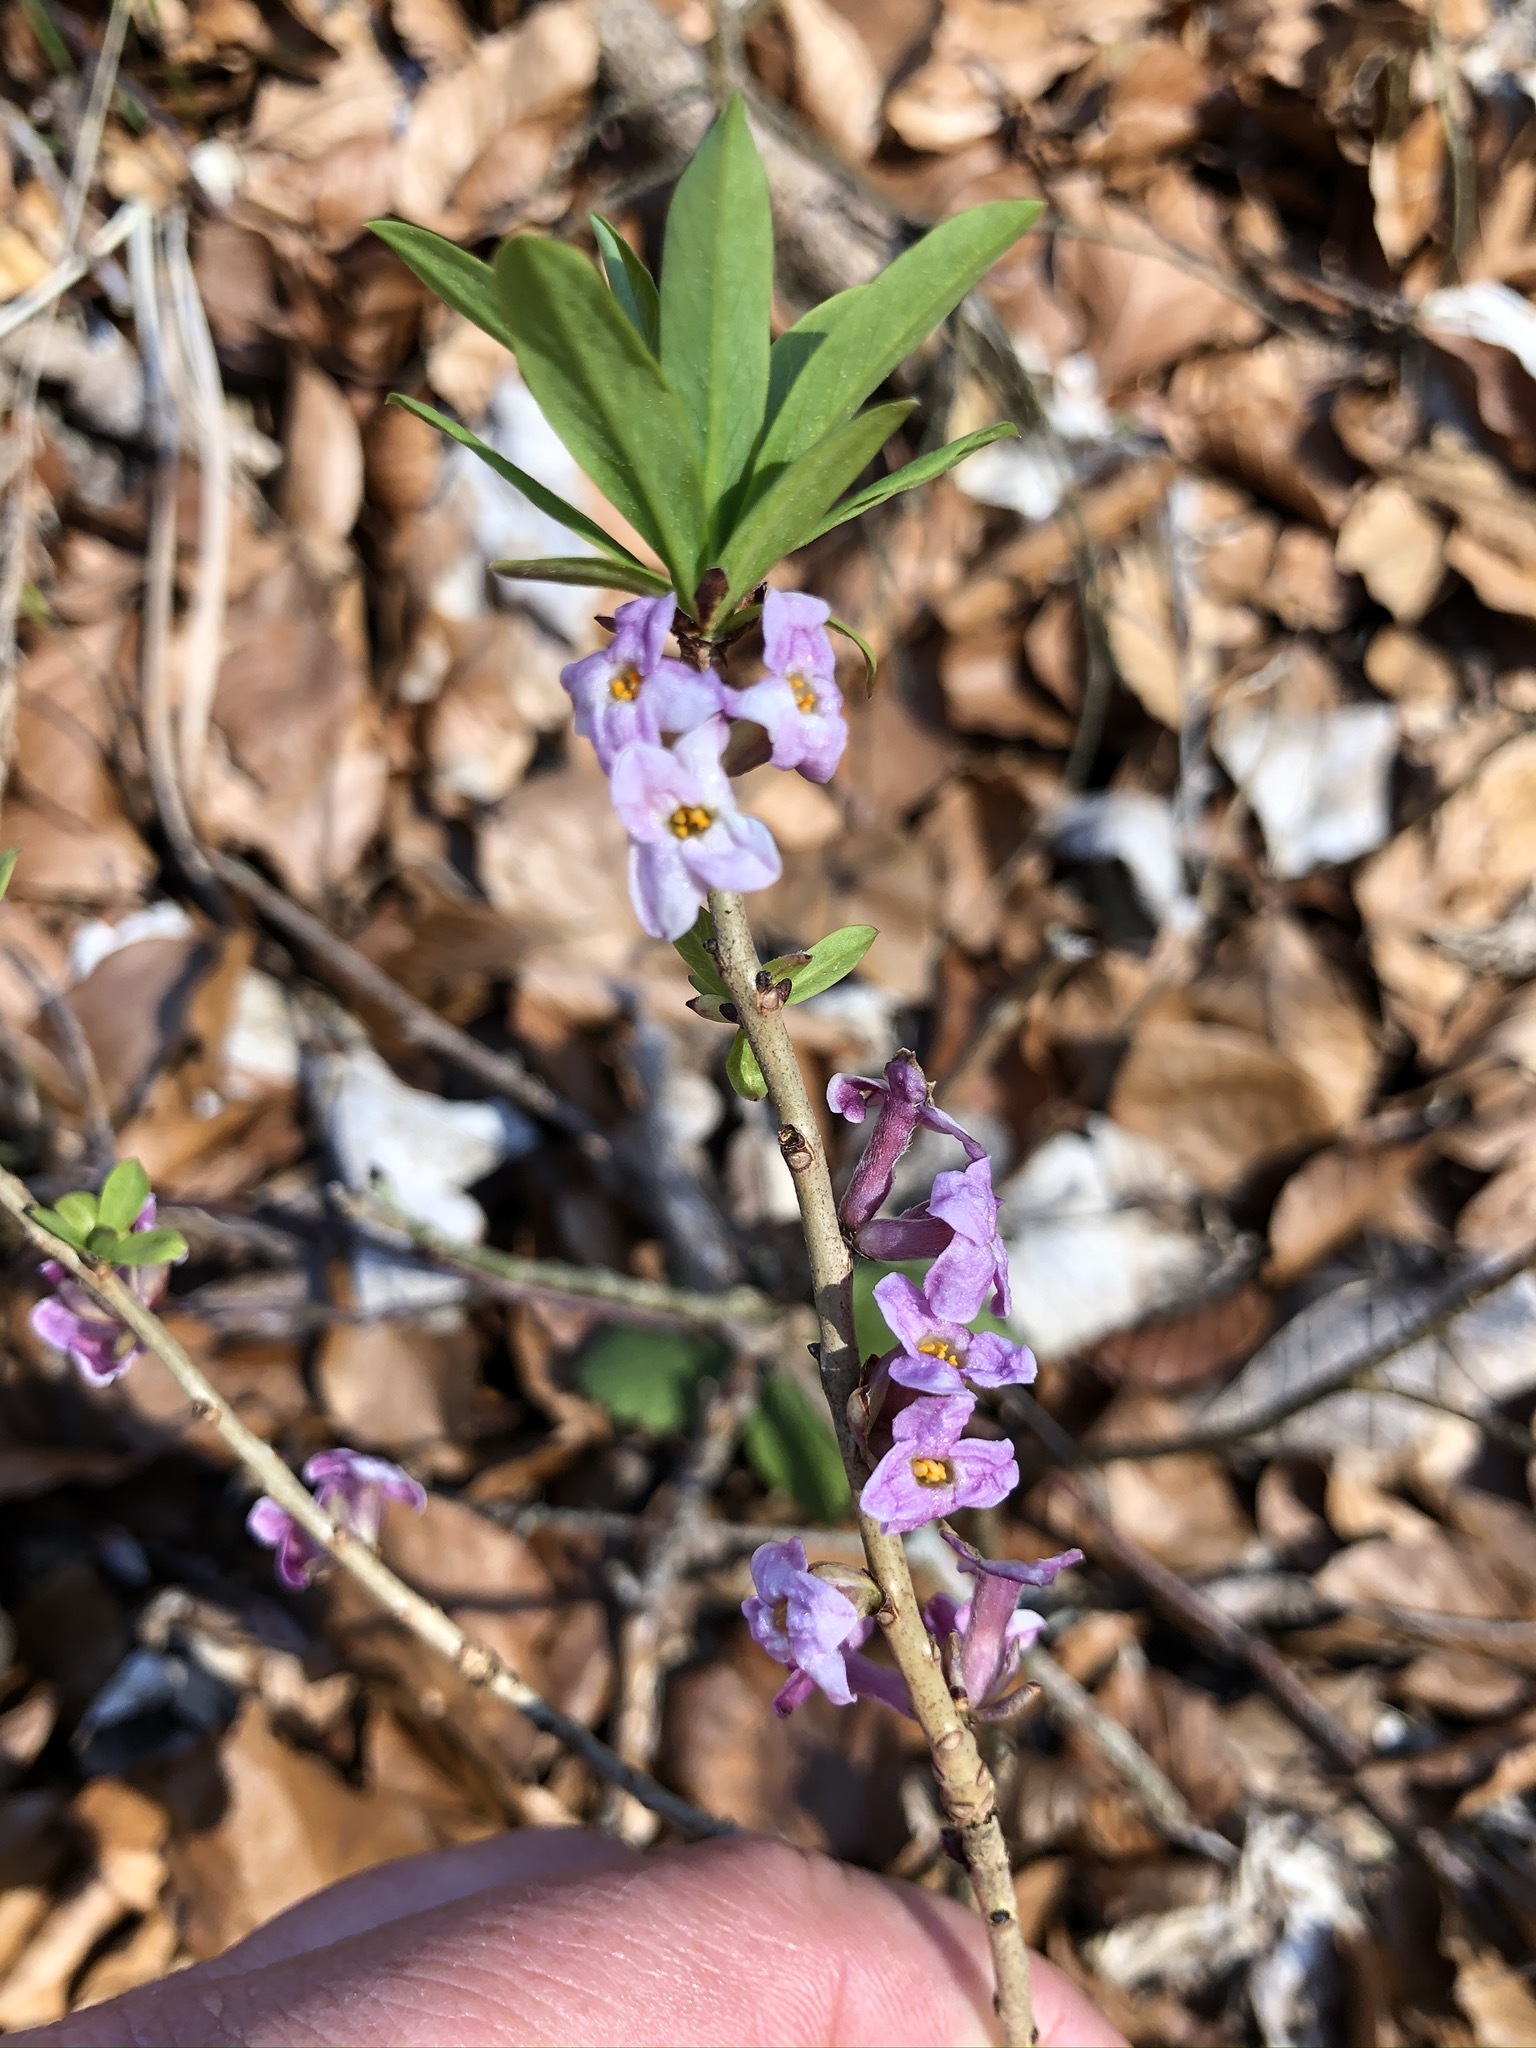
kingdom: Plantae
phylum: Tracheophyta
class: Magnoliopsida
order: Malvales
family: Thymelaeaceae
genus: Daphne
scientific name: Daphne mezereum
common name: Mezereon
